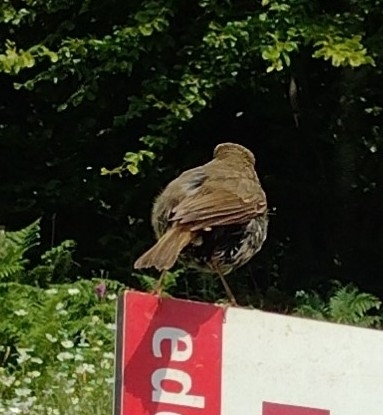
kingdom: Animalia
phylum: Chordata
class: Aves
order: Passeriformes
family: Muscicapidae
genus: Erithacus
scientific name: Erithacus rubecula
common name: European robin
